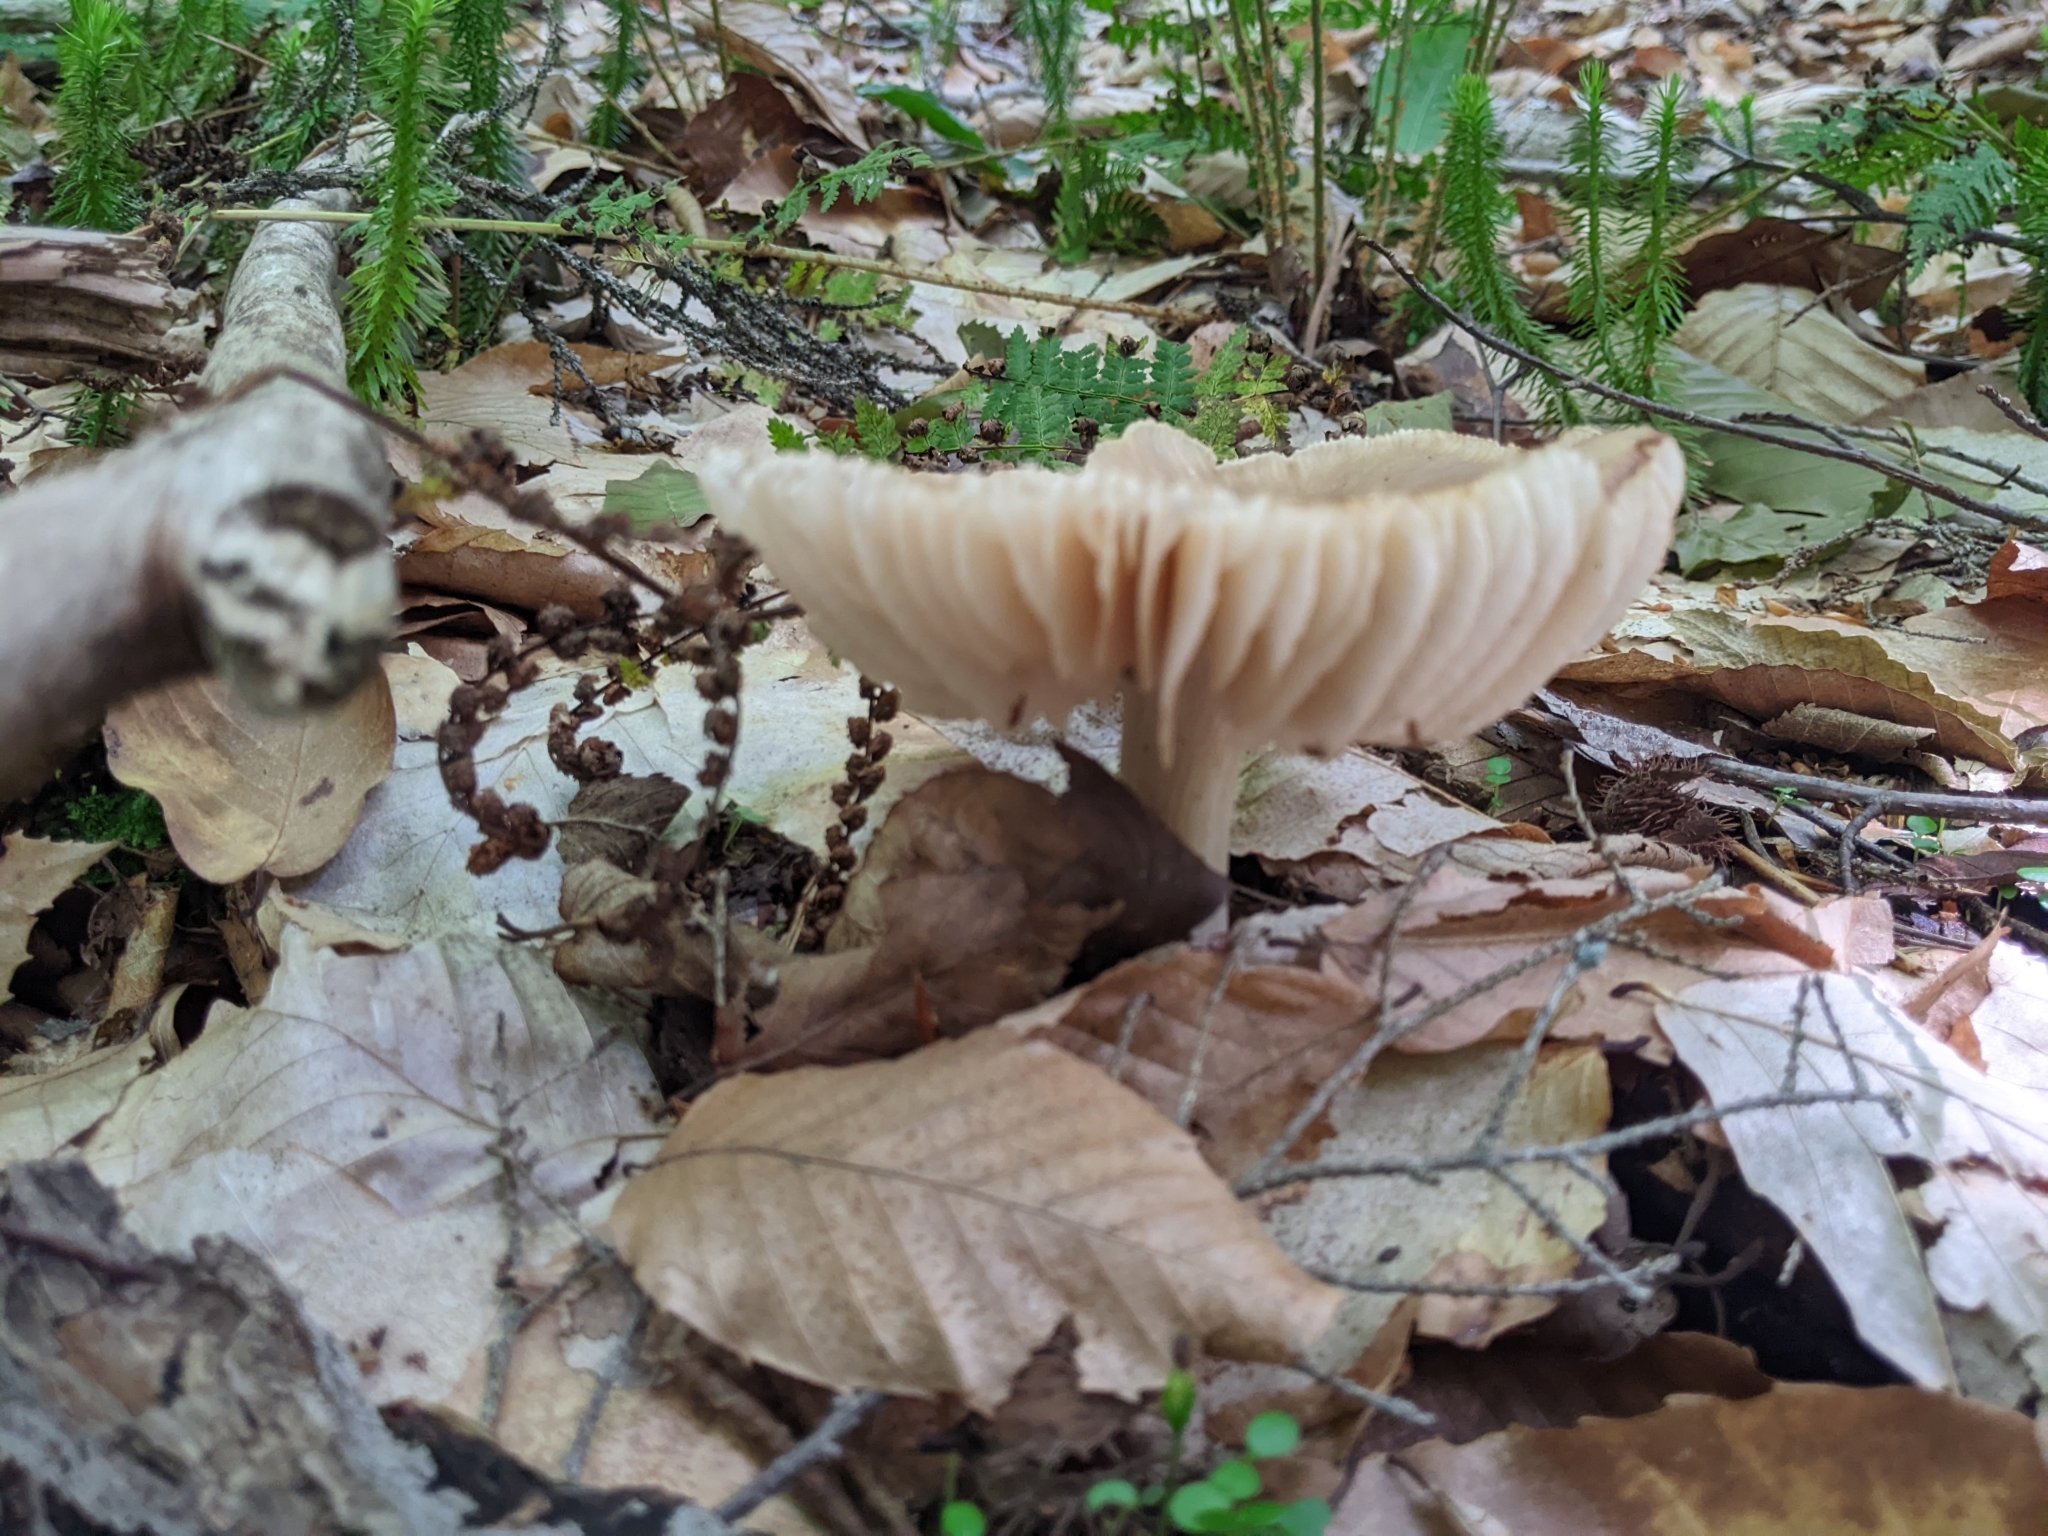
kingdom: Fungi
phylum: Basidiomycota
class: Agaricomycetes
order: Agaricales
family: Tricholomataceae
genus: Megacollybia
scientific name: Megacollybia rodmanii
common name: Eastern american platterful mushroom
